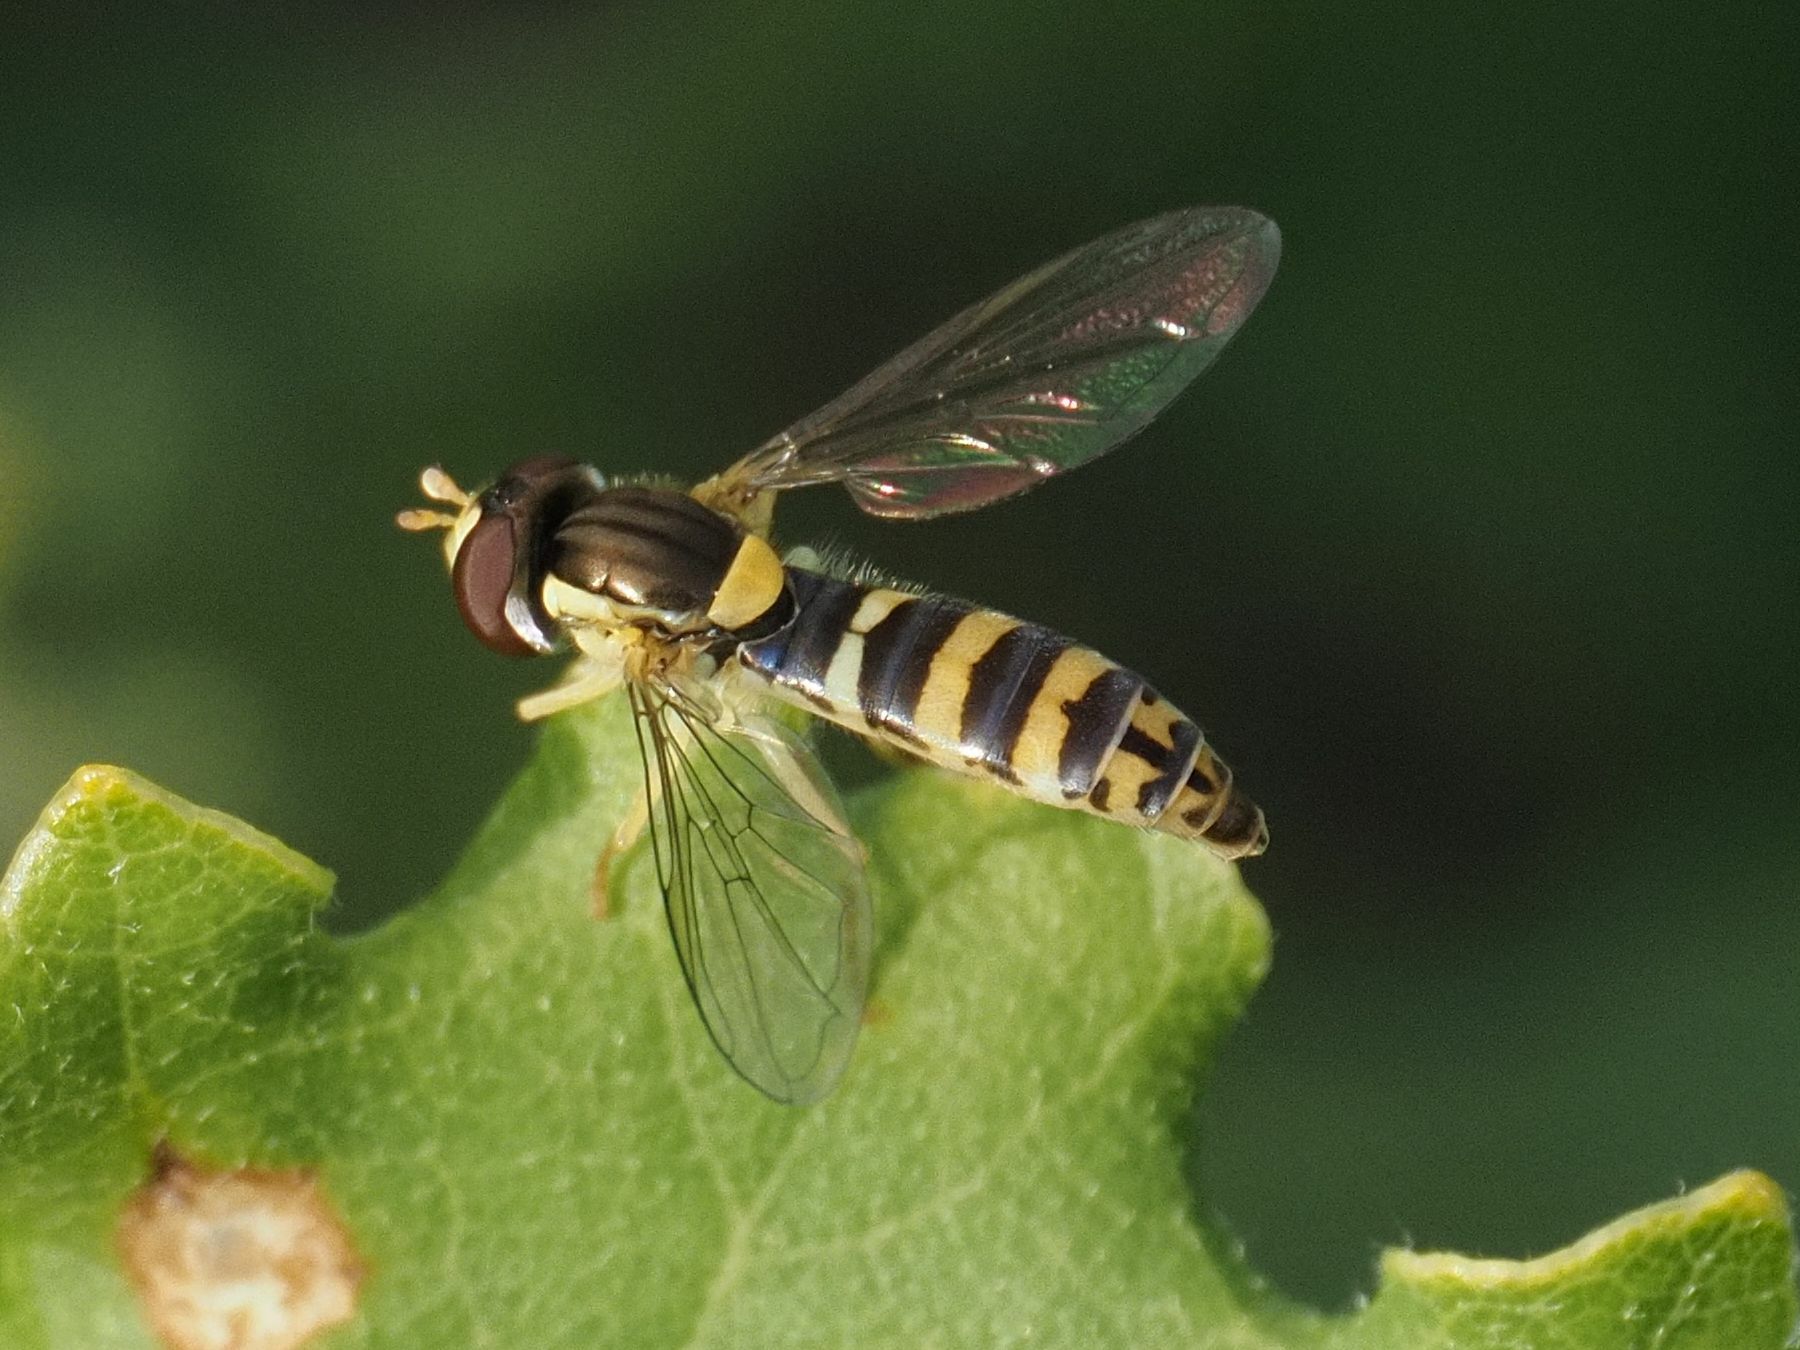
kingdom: Animalia
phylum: Arthropoda
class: Insecta
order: Diptera
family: Syrphidae
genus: Sphaerophoria
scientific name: Sphaerophoria
